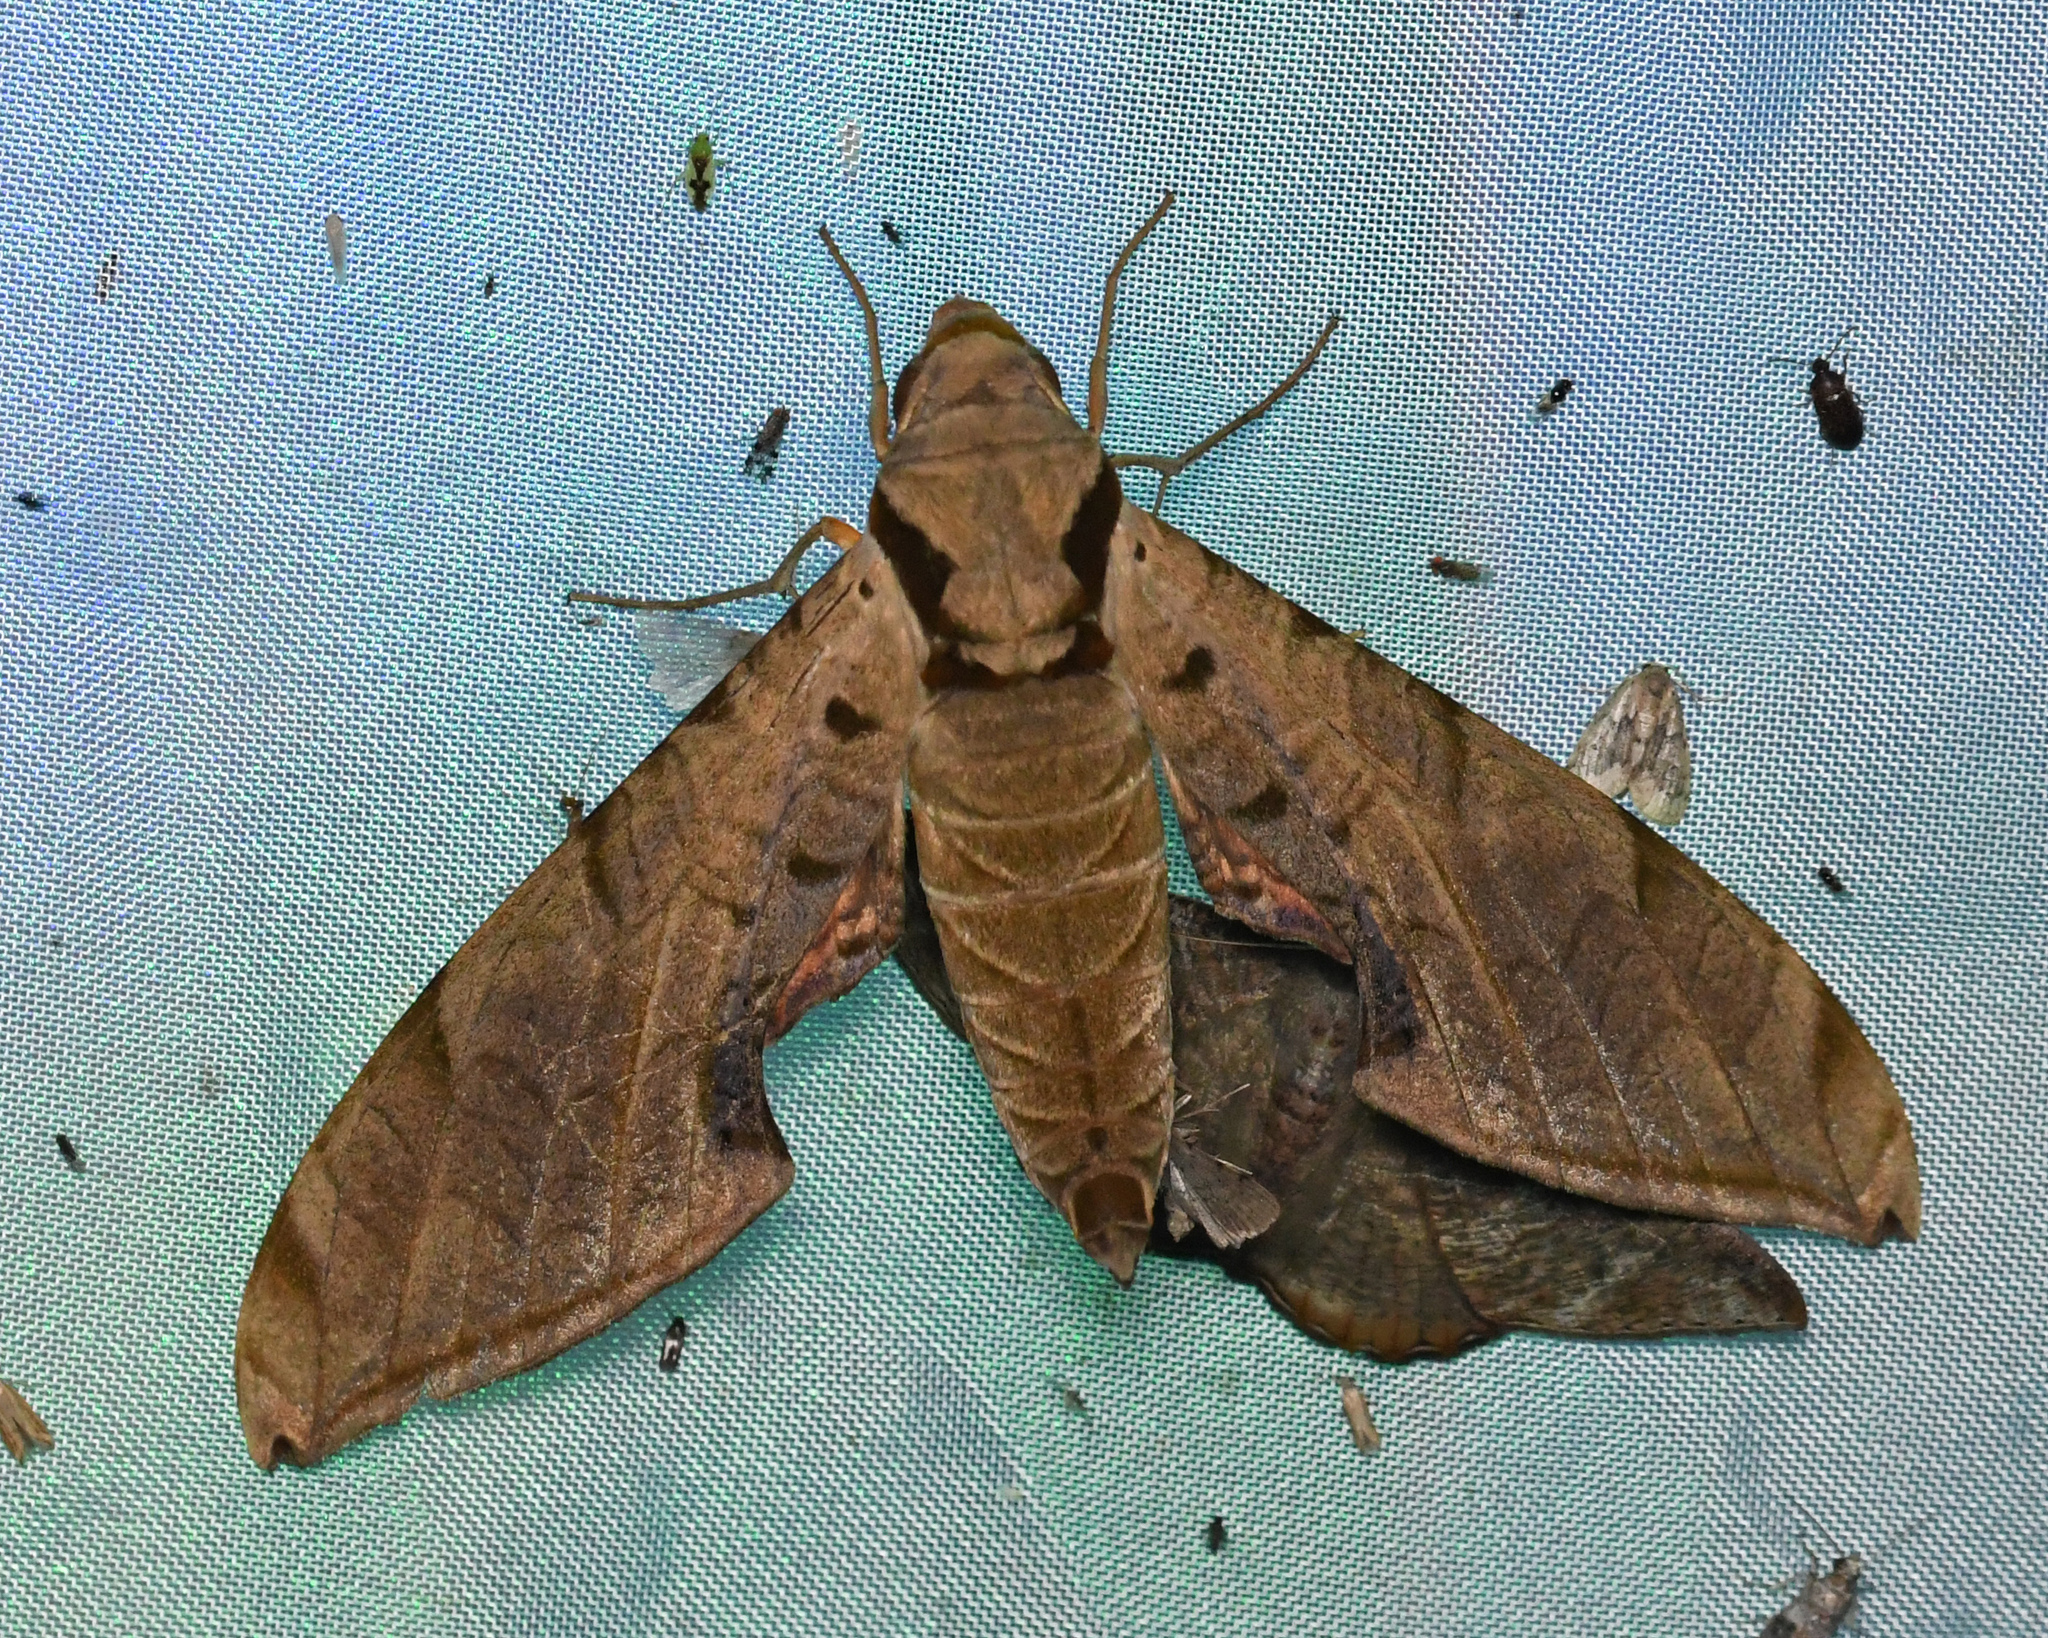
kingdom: Animalia
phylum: Arthropoda
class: Insecta
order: Lepidoptera
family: Sphingidae
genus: Protambulyx
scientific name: Protambulyx strigilis
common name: Streaked sphinx
